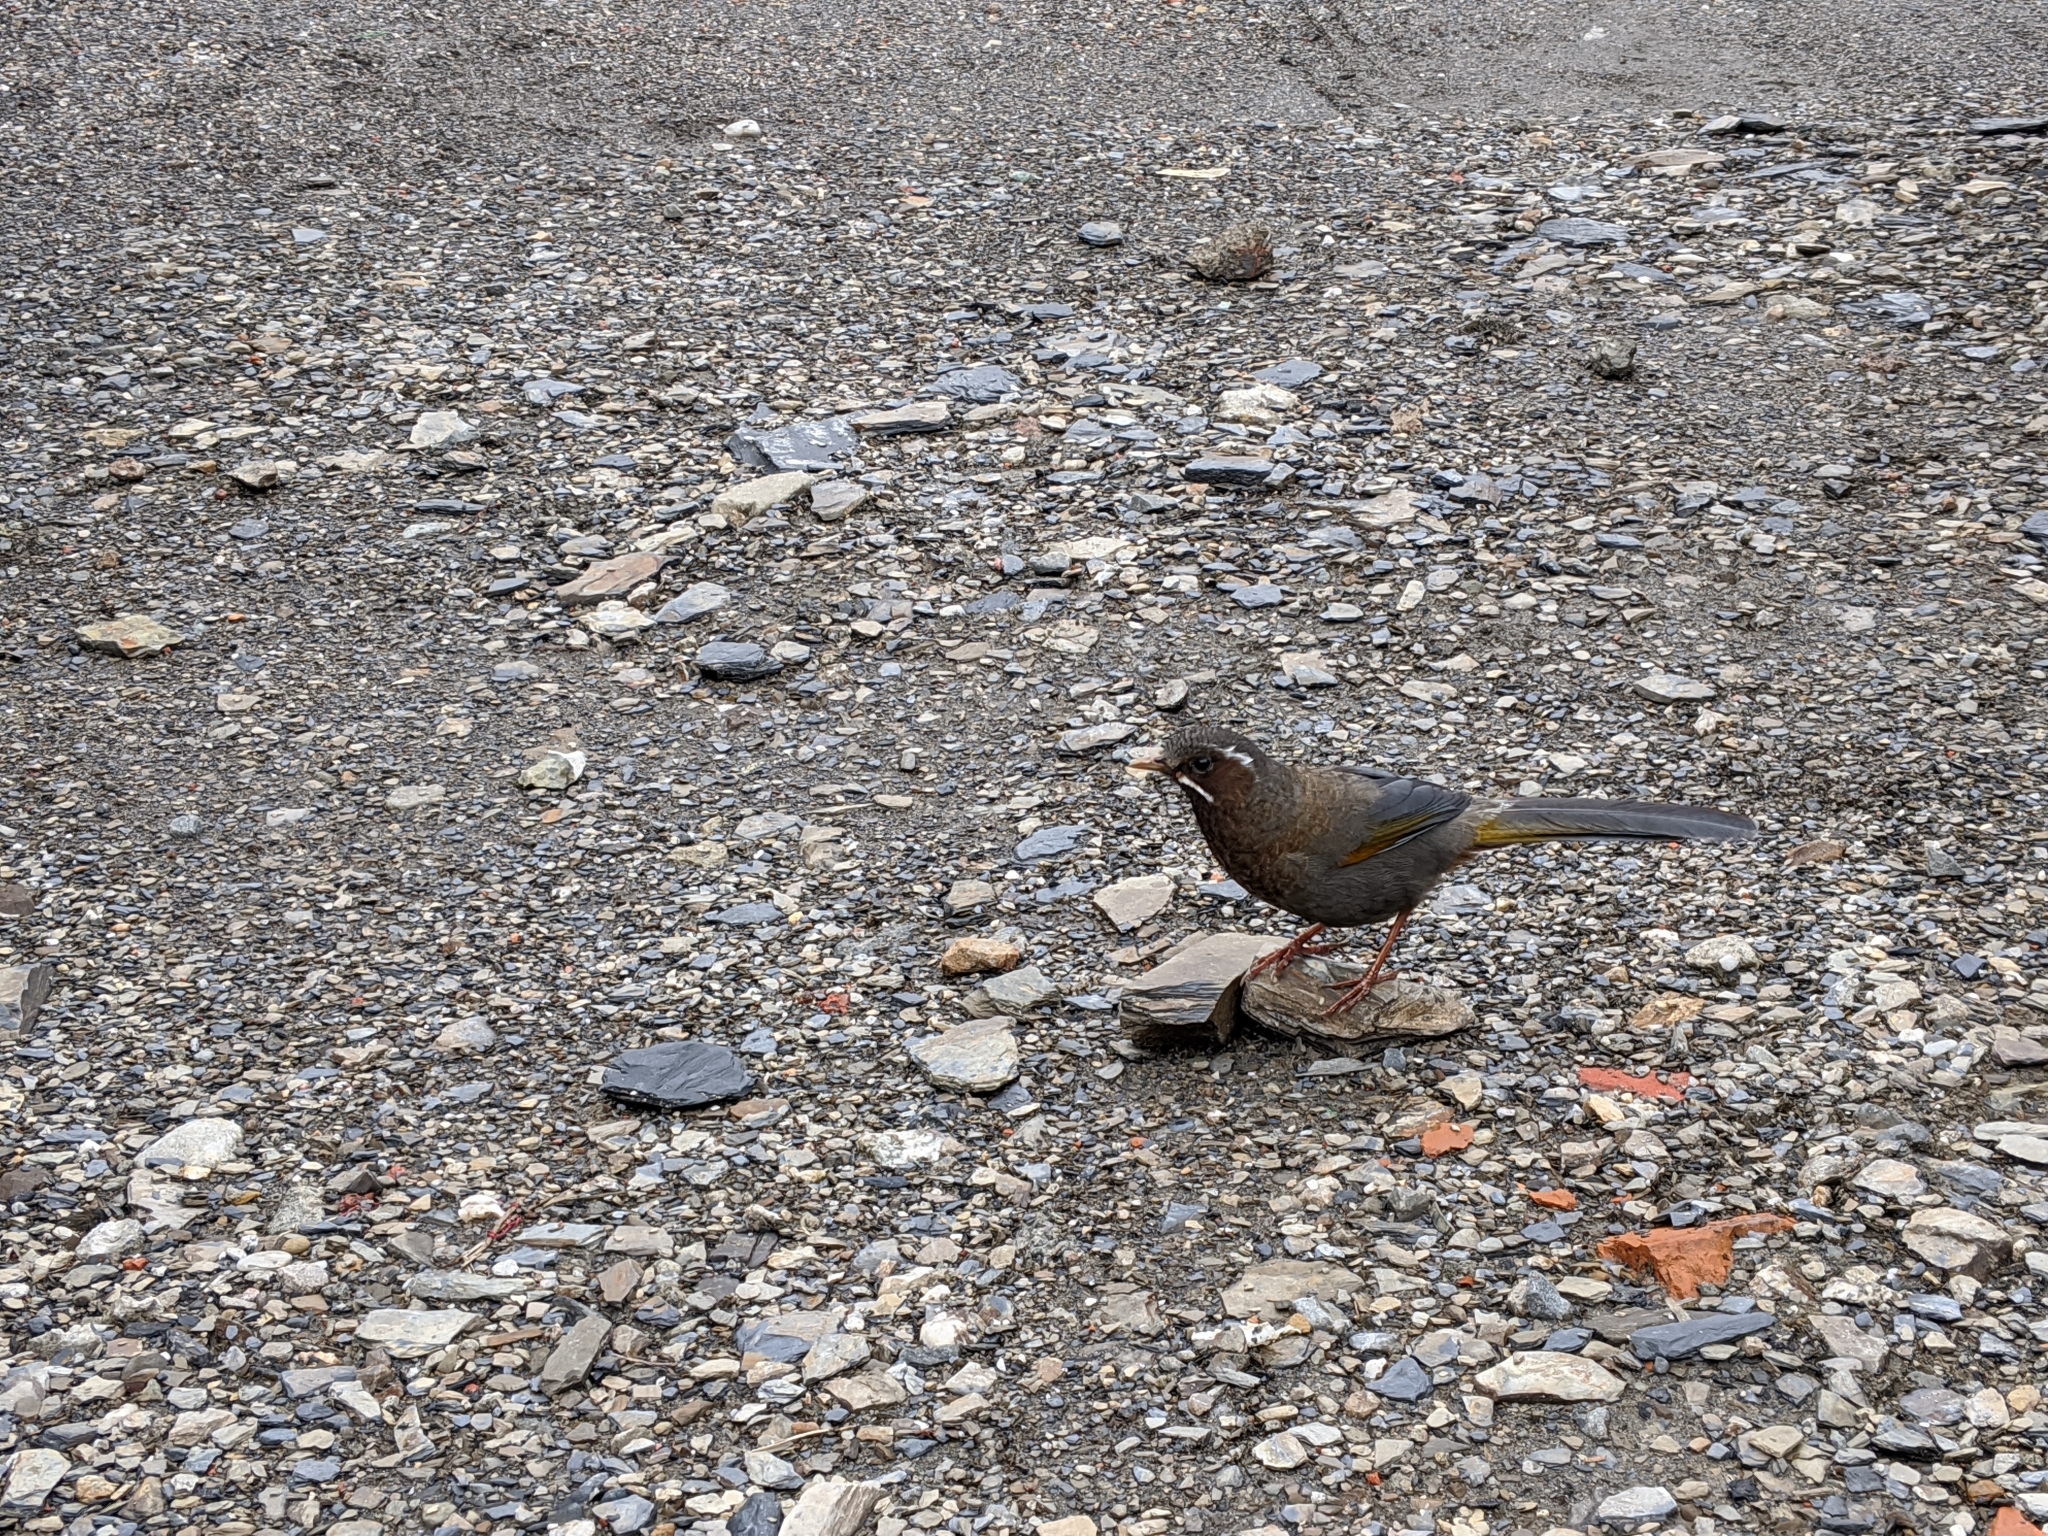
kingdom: Animalia
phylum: Chordata
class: Aves
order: Passeriformes
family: Leiothrichidae
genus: Trochalopteron
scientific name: Trochalopteron morrisonianum
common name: White-whiskered laughingthrush
